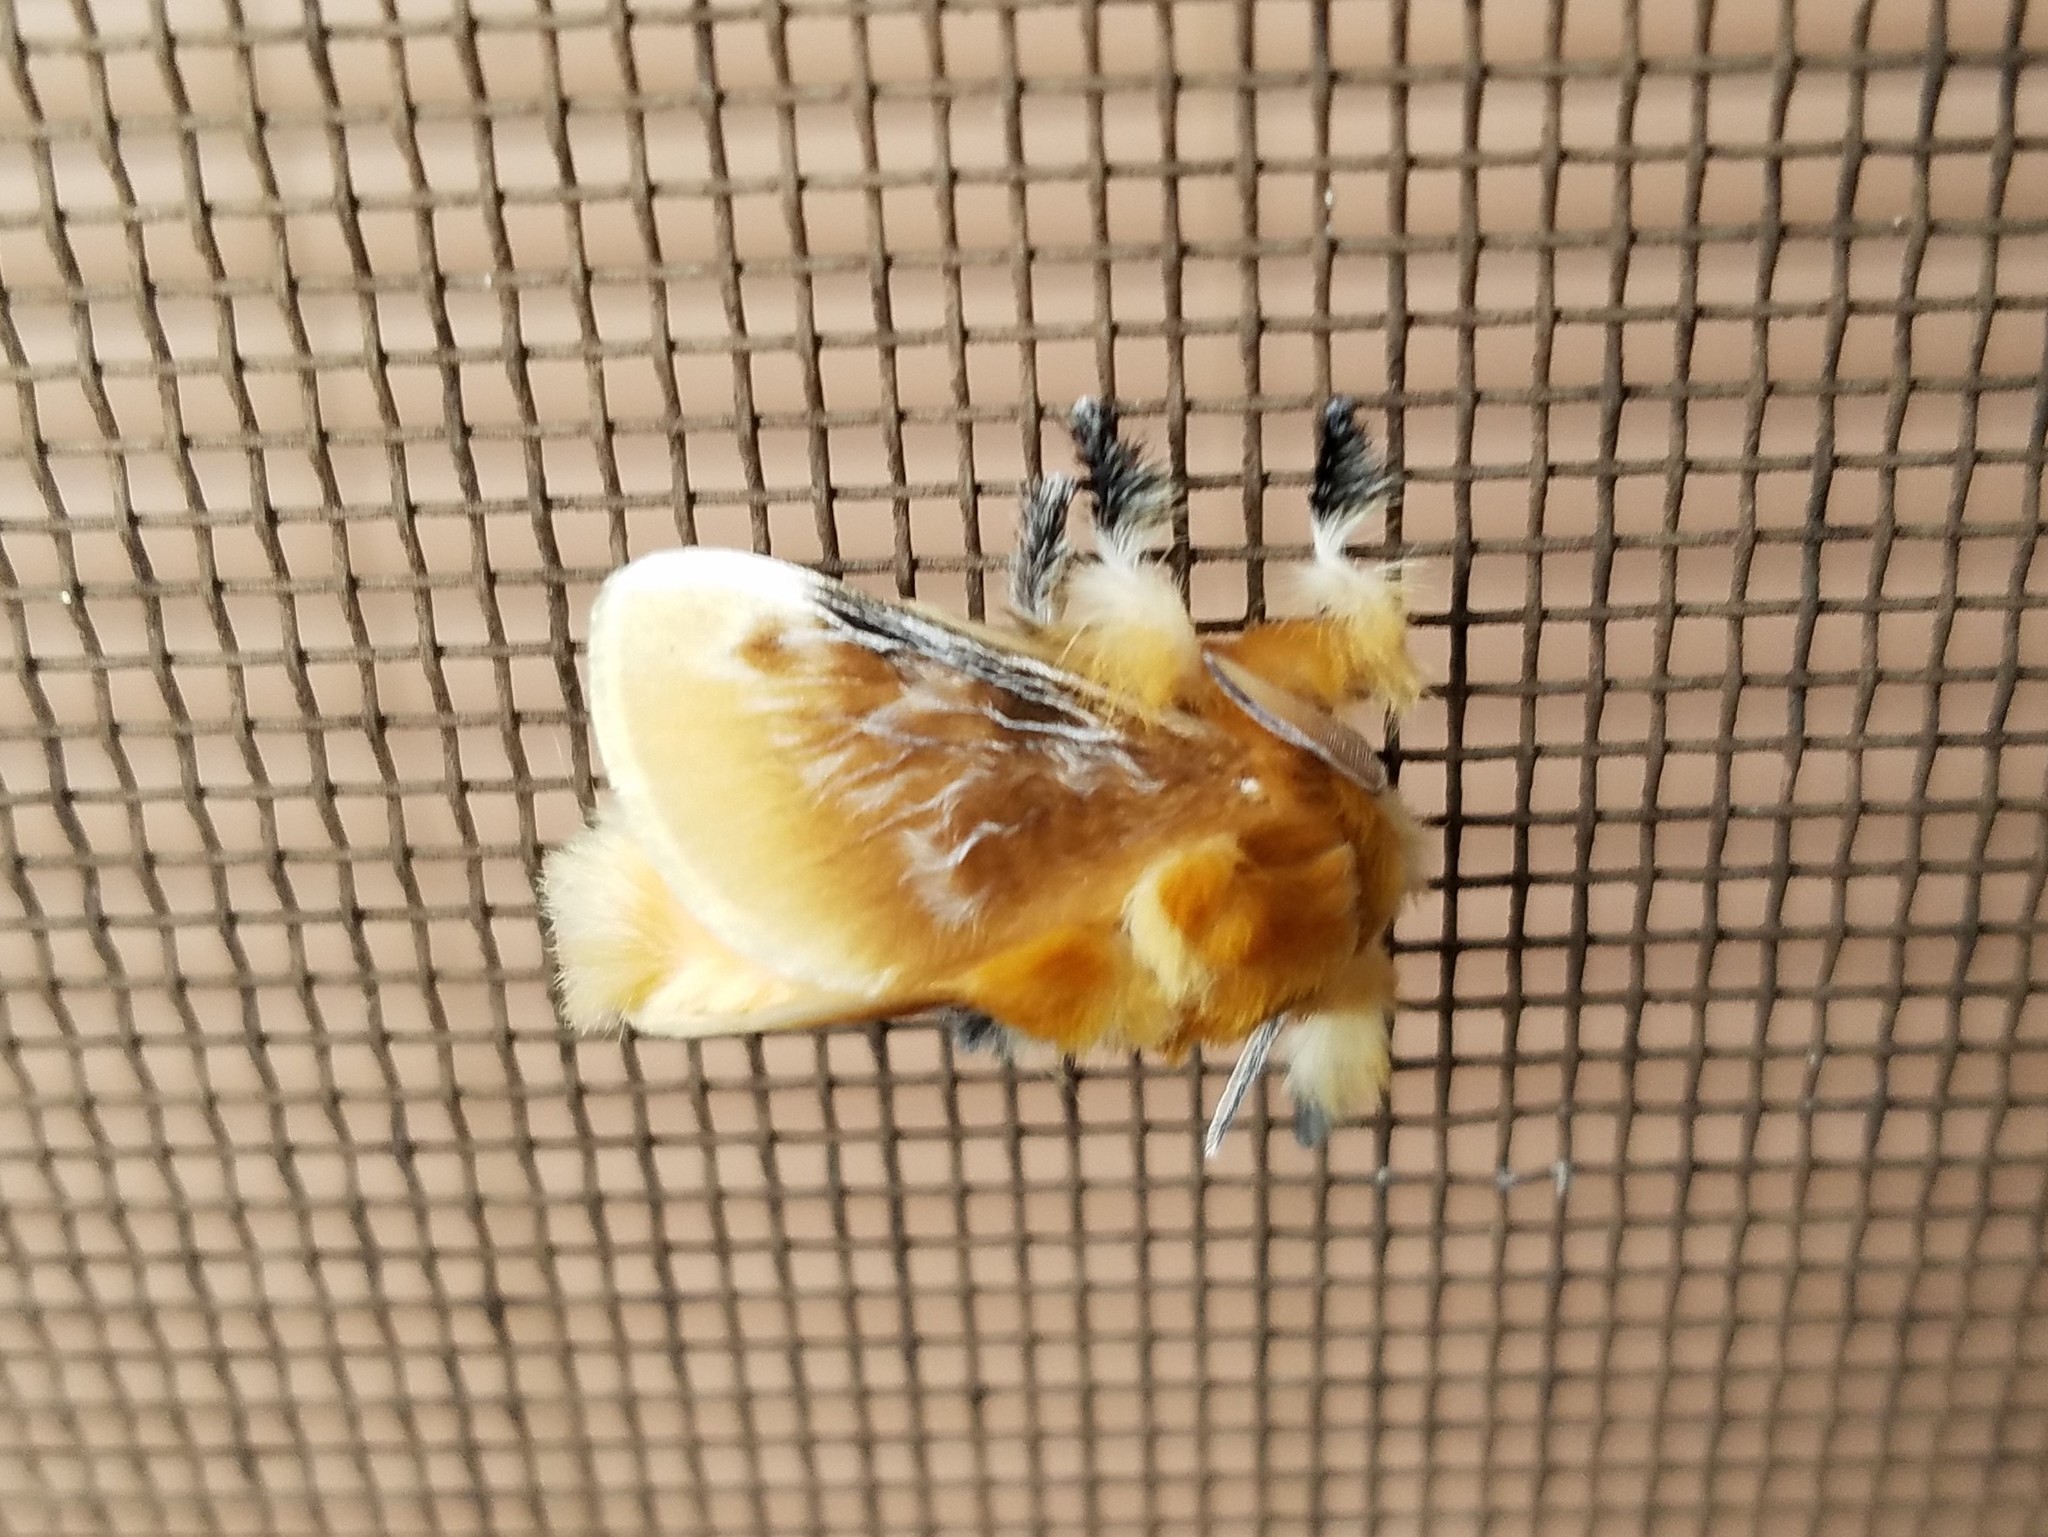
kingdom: Animalia
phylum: Arthropoda
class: Insecta
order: Lepidoptera
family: Megalopygidae
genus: Megalopyge
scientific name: Megalopyge opercularis
